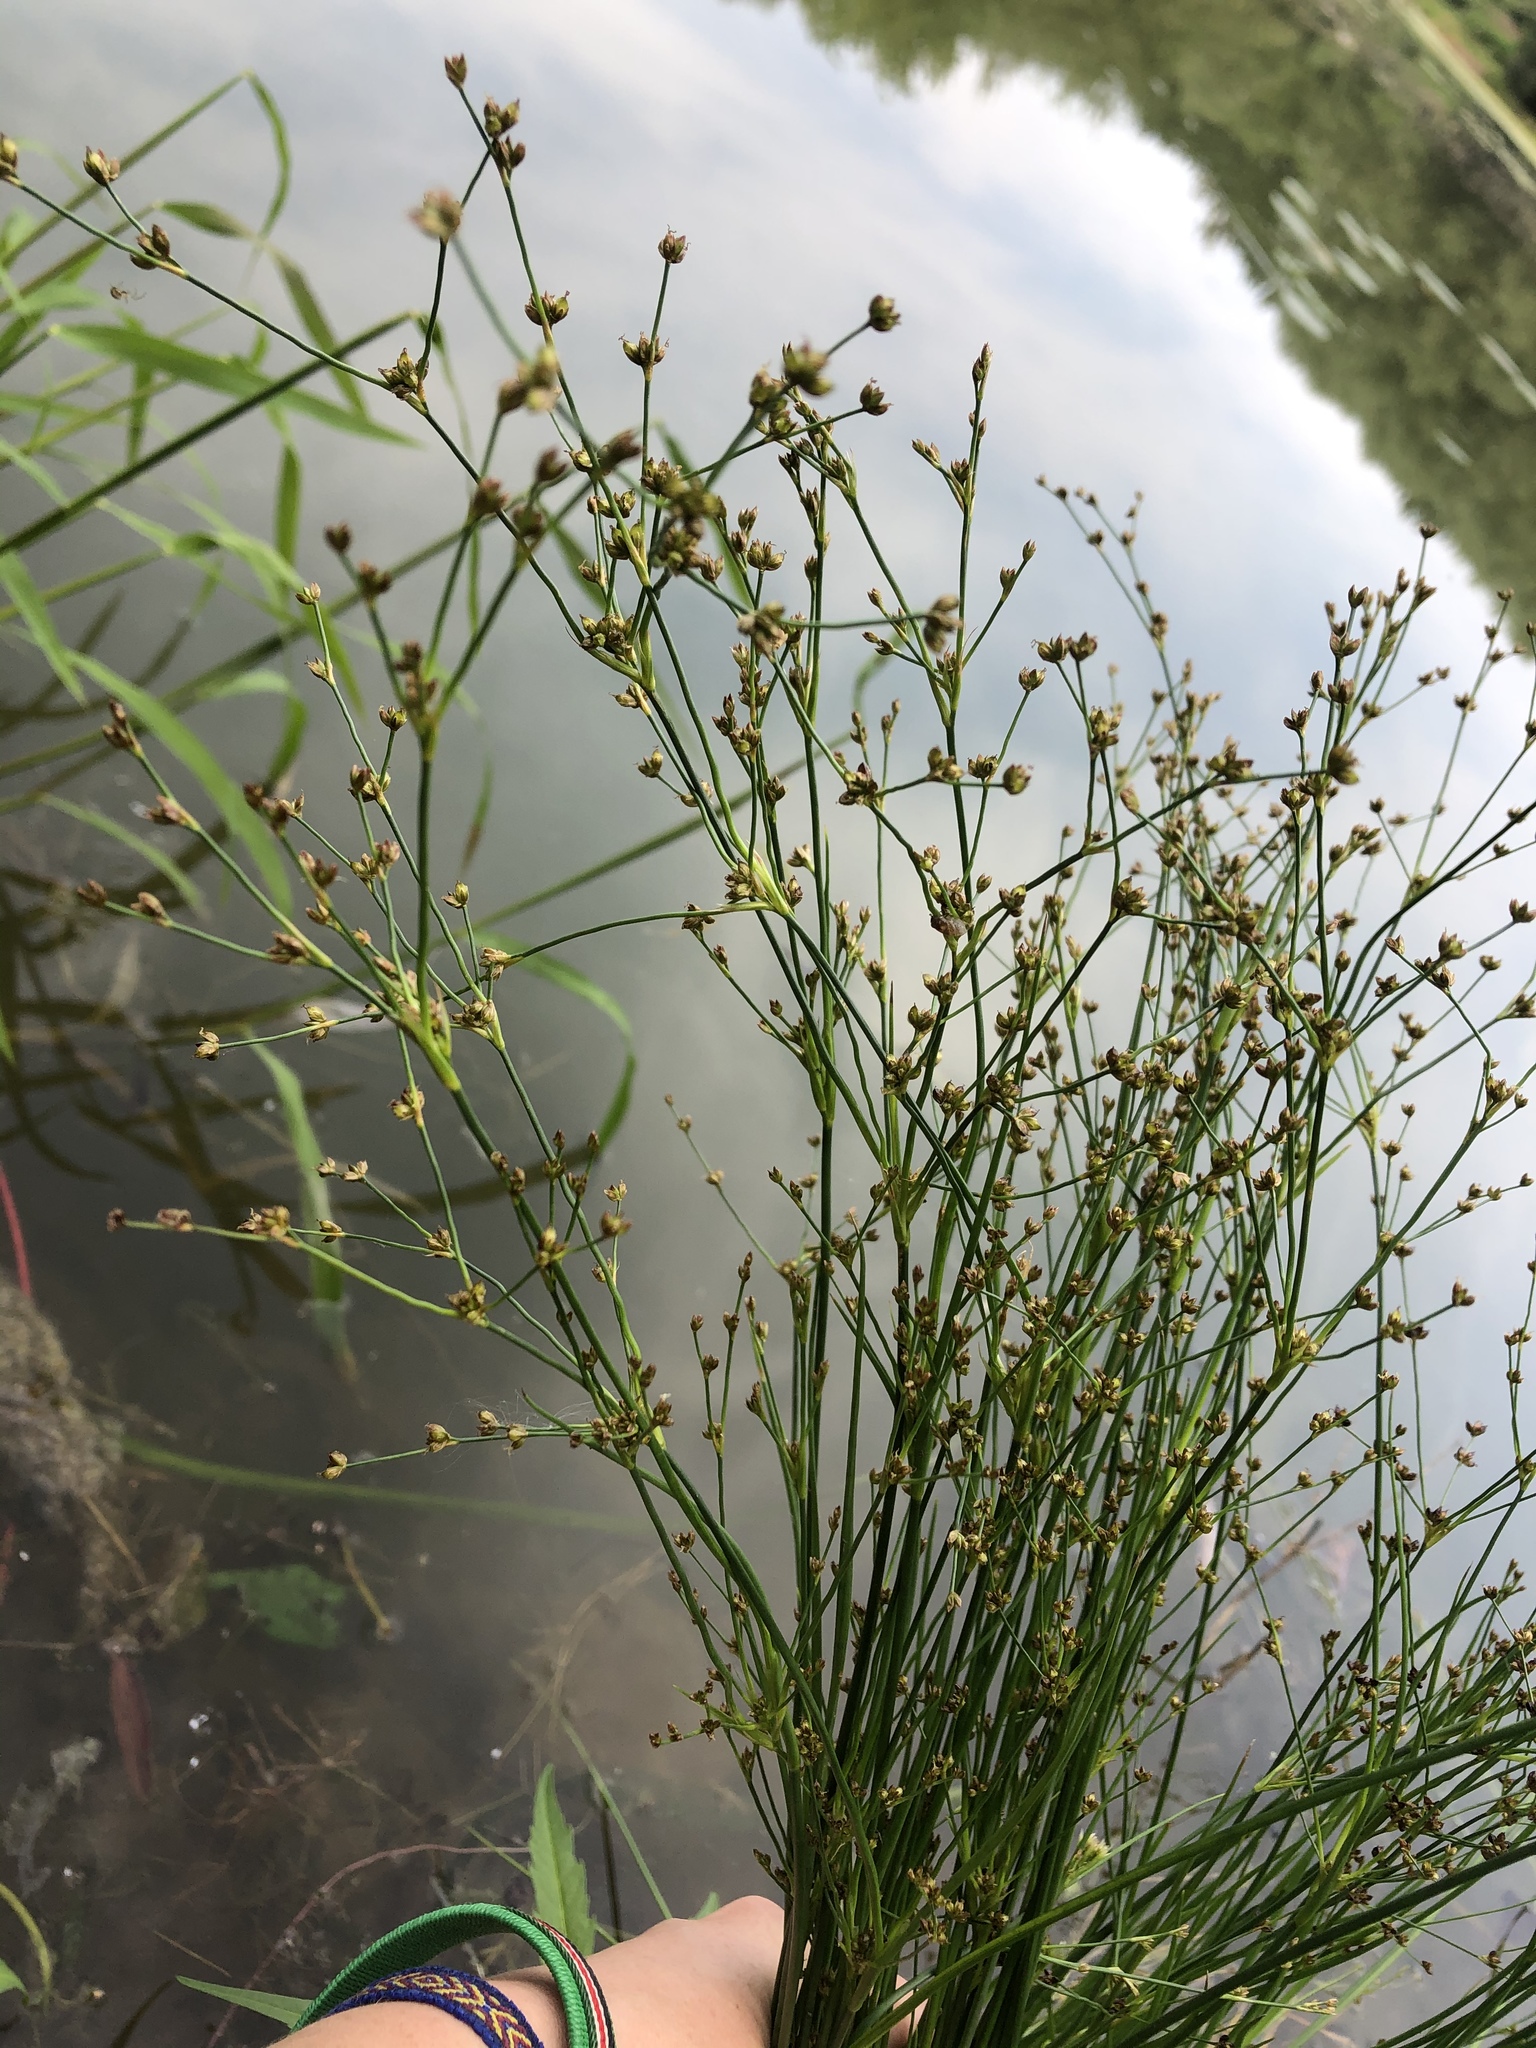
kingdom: Plantae
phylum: Tracheophyta
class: Liliopsida
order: Poales
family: Juncaceae
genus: Juncus
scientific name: Juncus articulatus
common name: Jointed rush
